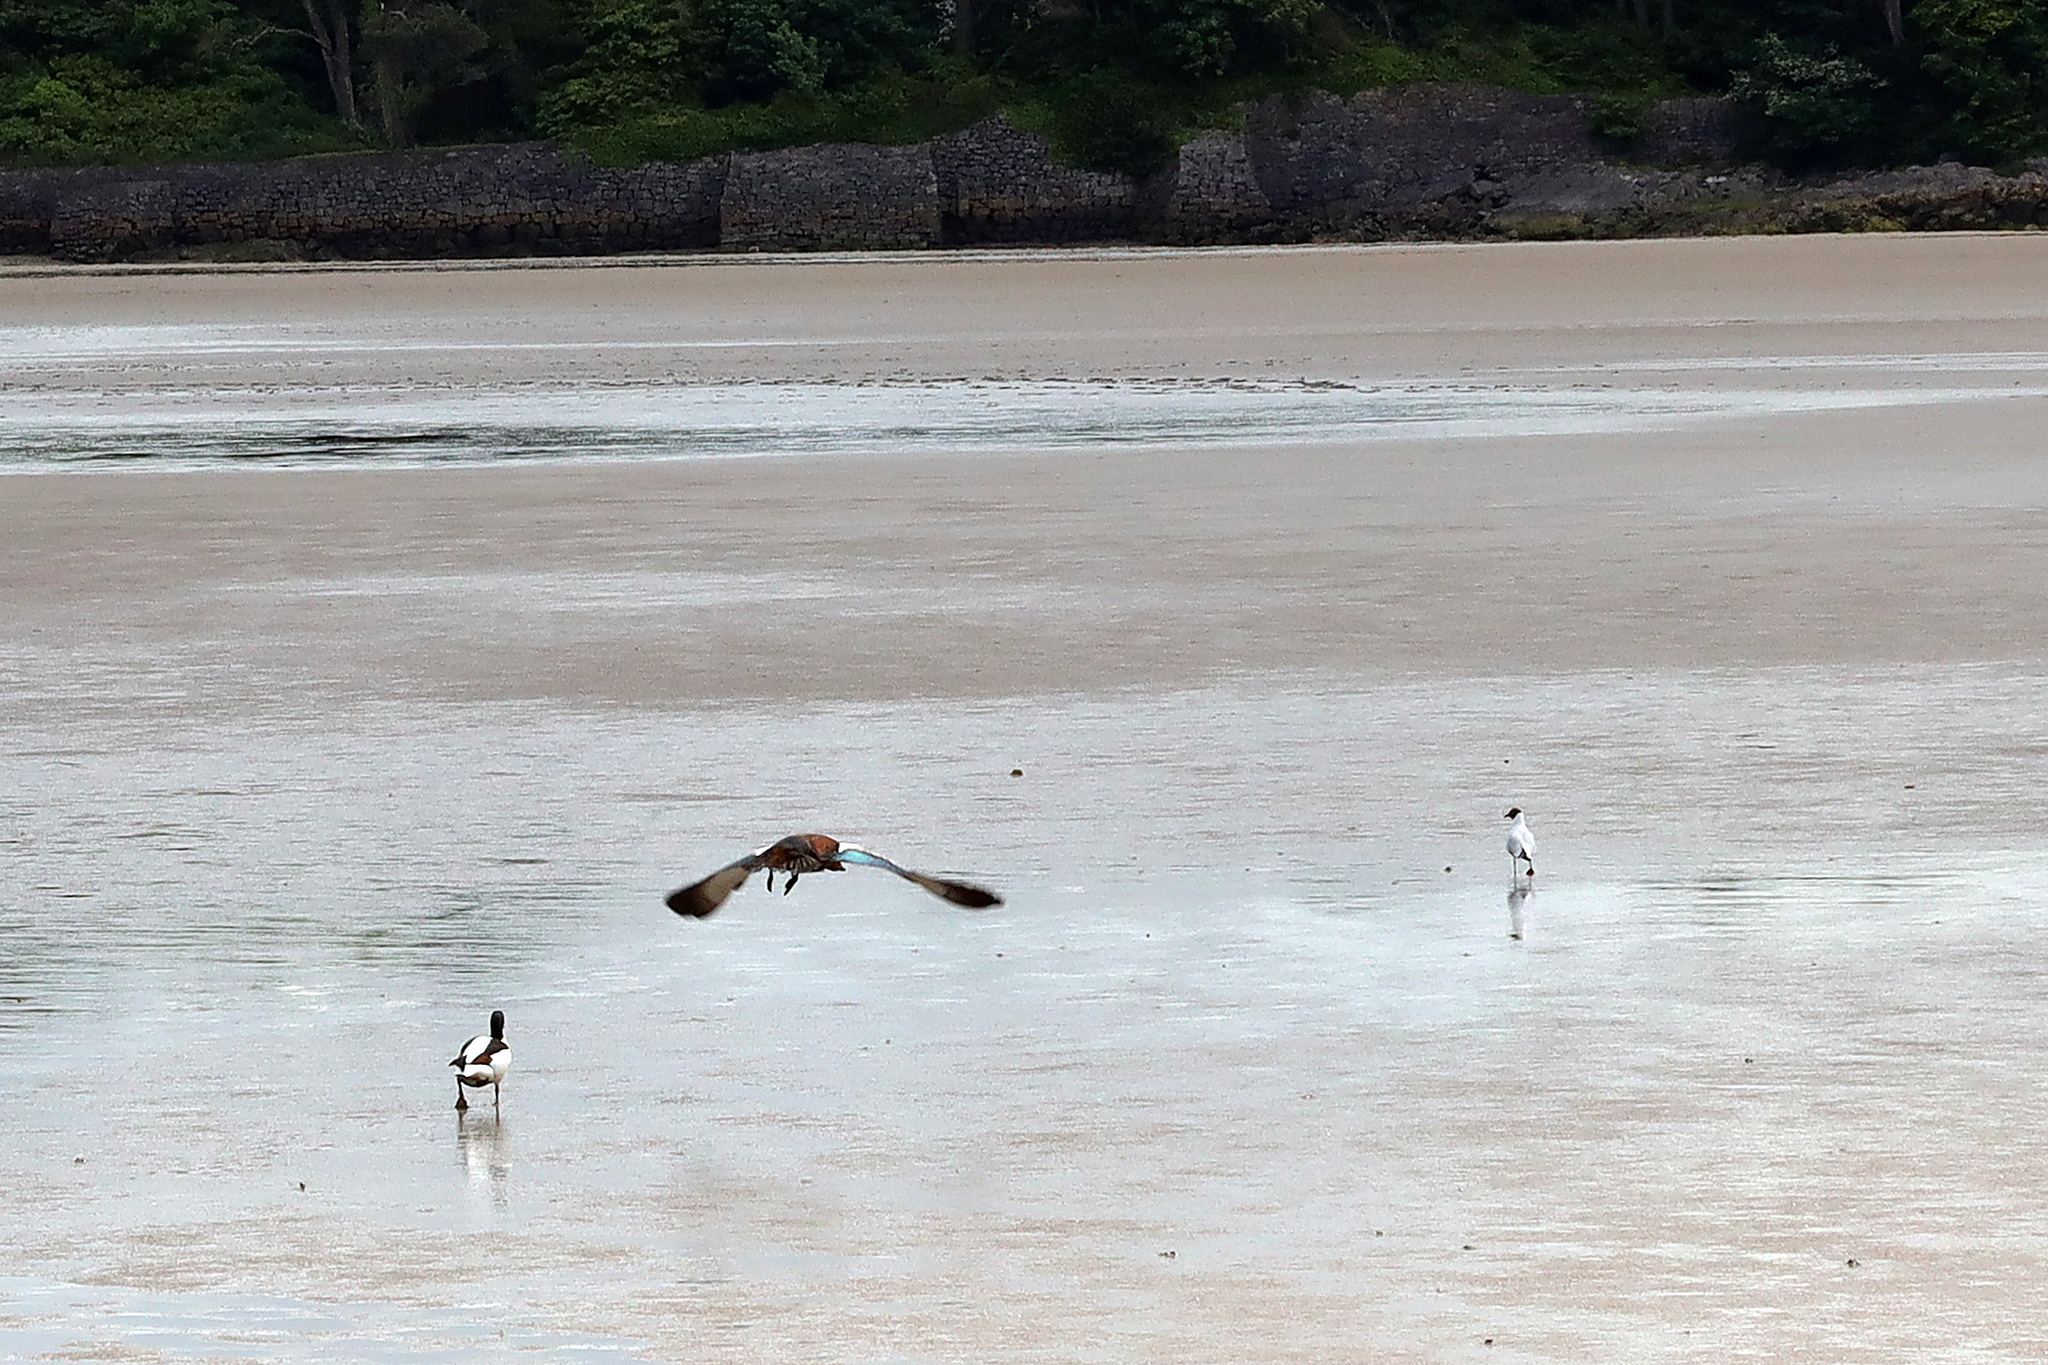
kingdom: Animalia
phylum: Chordata
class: Aves
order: Anseriformes
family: Anatidae
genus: Tadorna
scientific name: Tadorna ferruginea
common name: Ruddy shelduck
